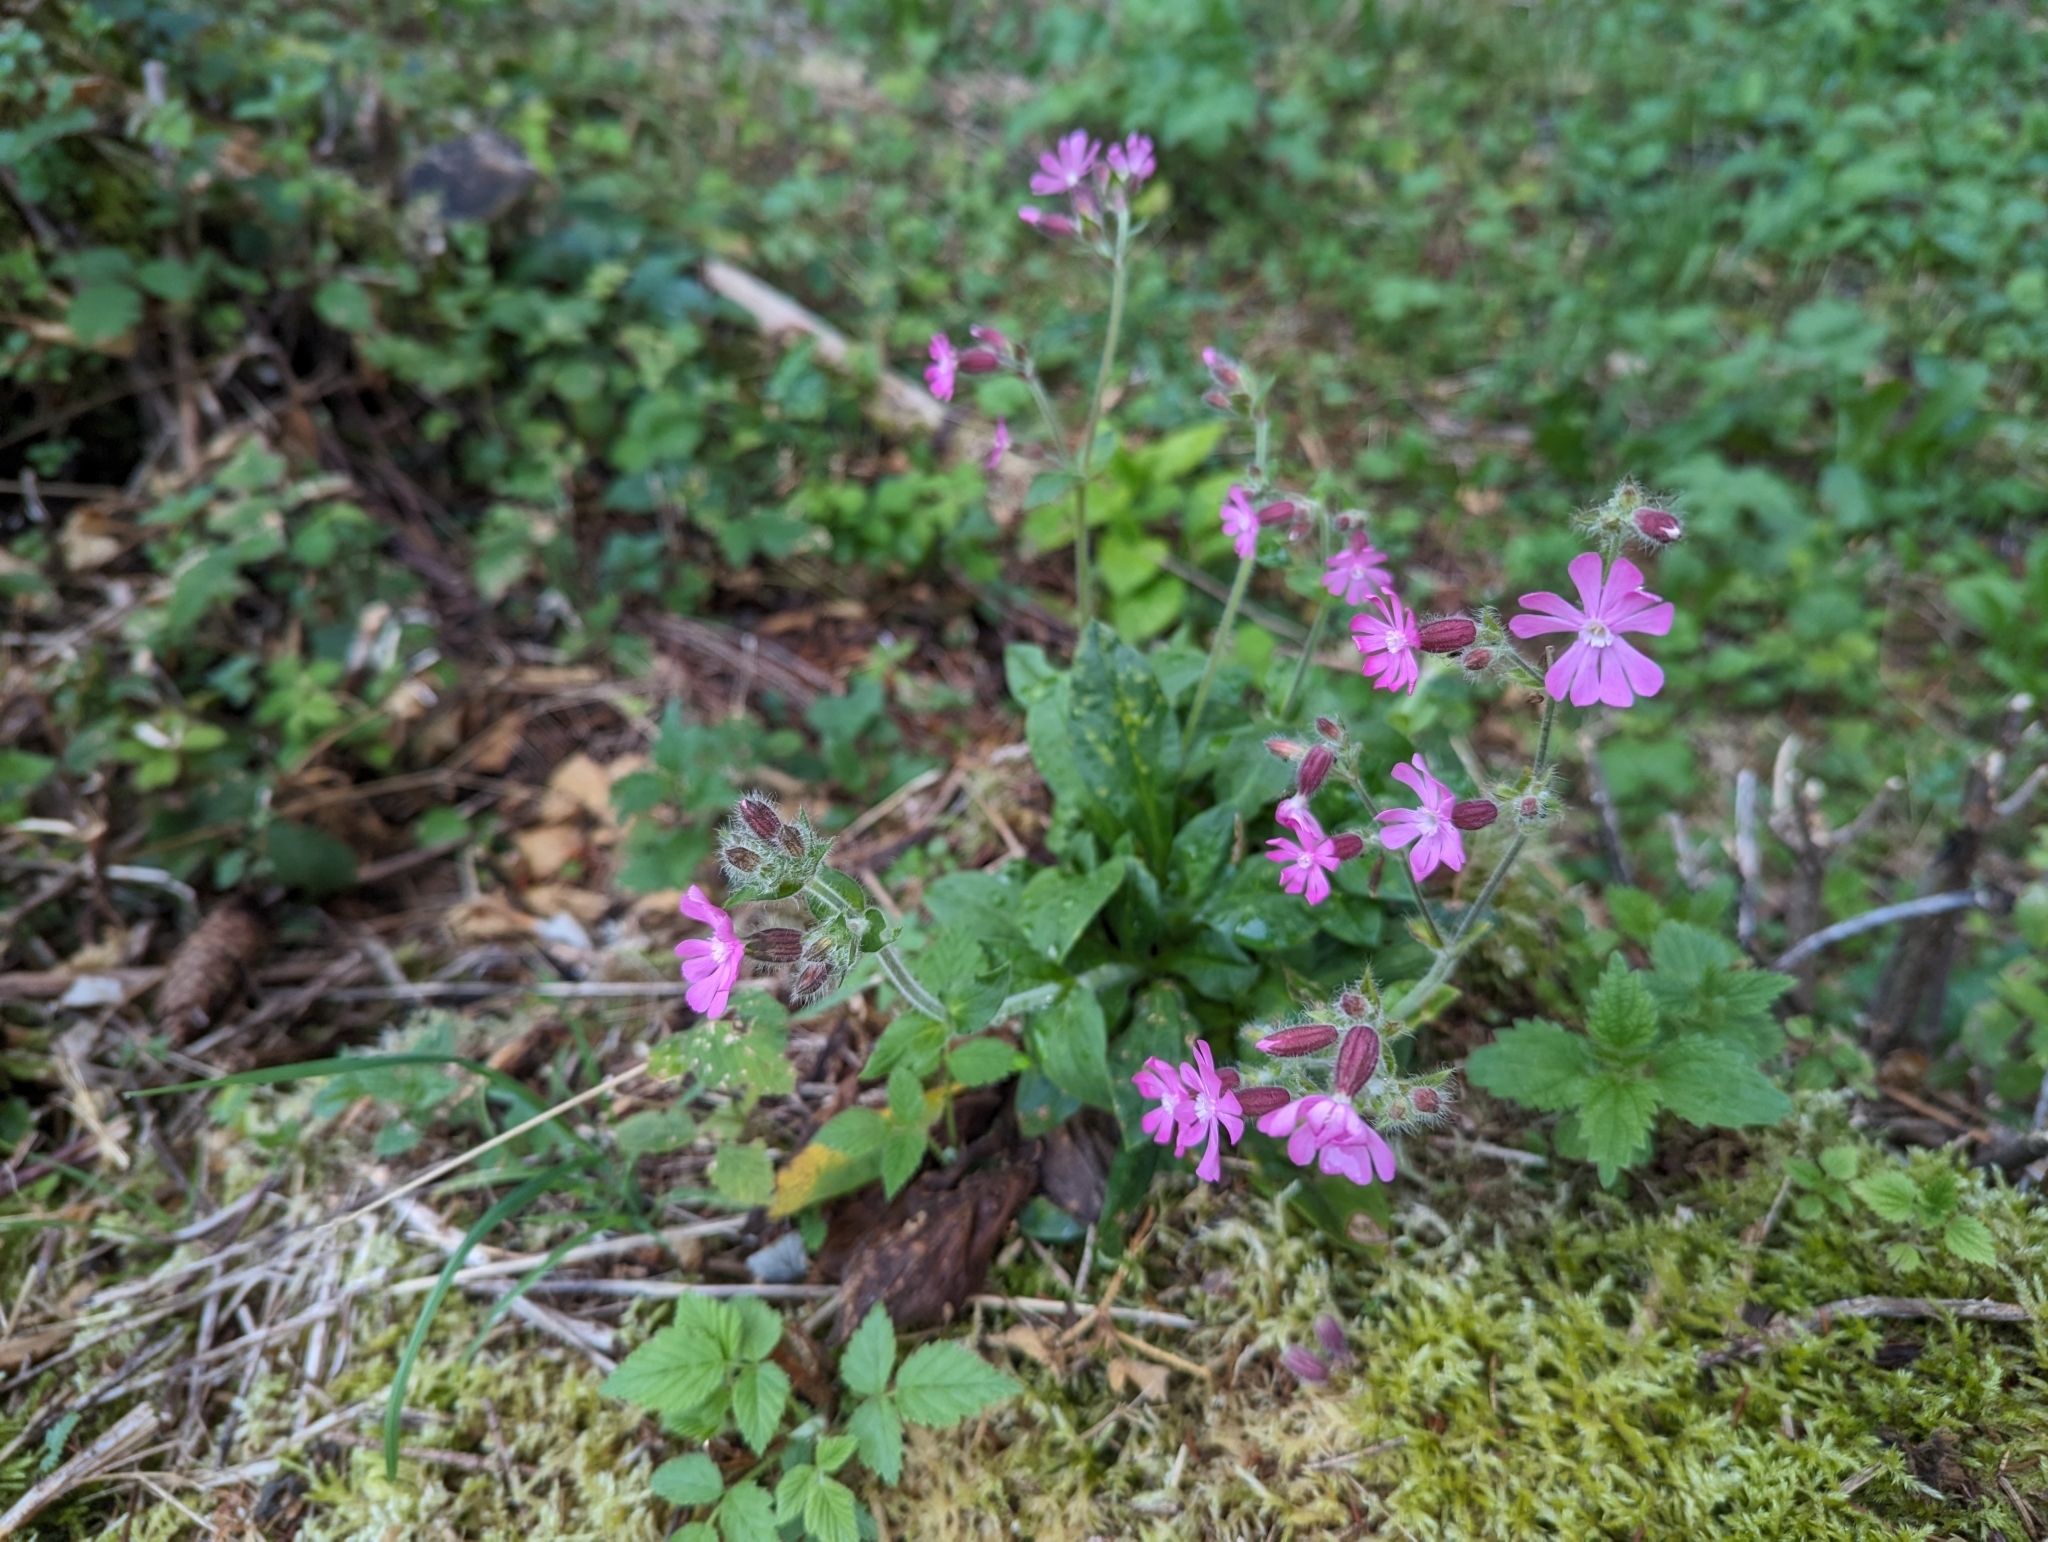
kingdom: Plantae
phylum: Tracheophyta
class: Magnoliopsida
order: Caryophyllales
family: Caryophyllaceae
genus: Silene
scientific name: Silene dioica
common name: Red campion
